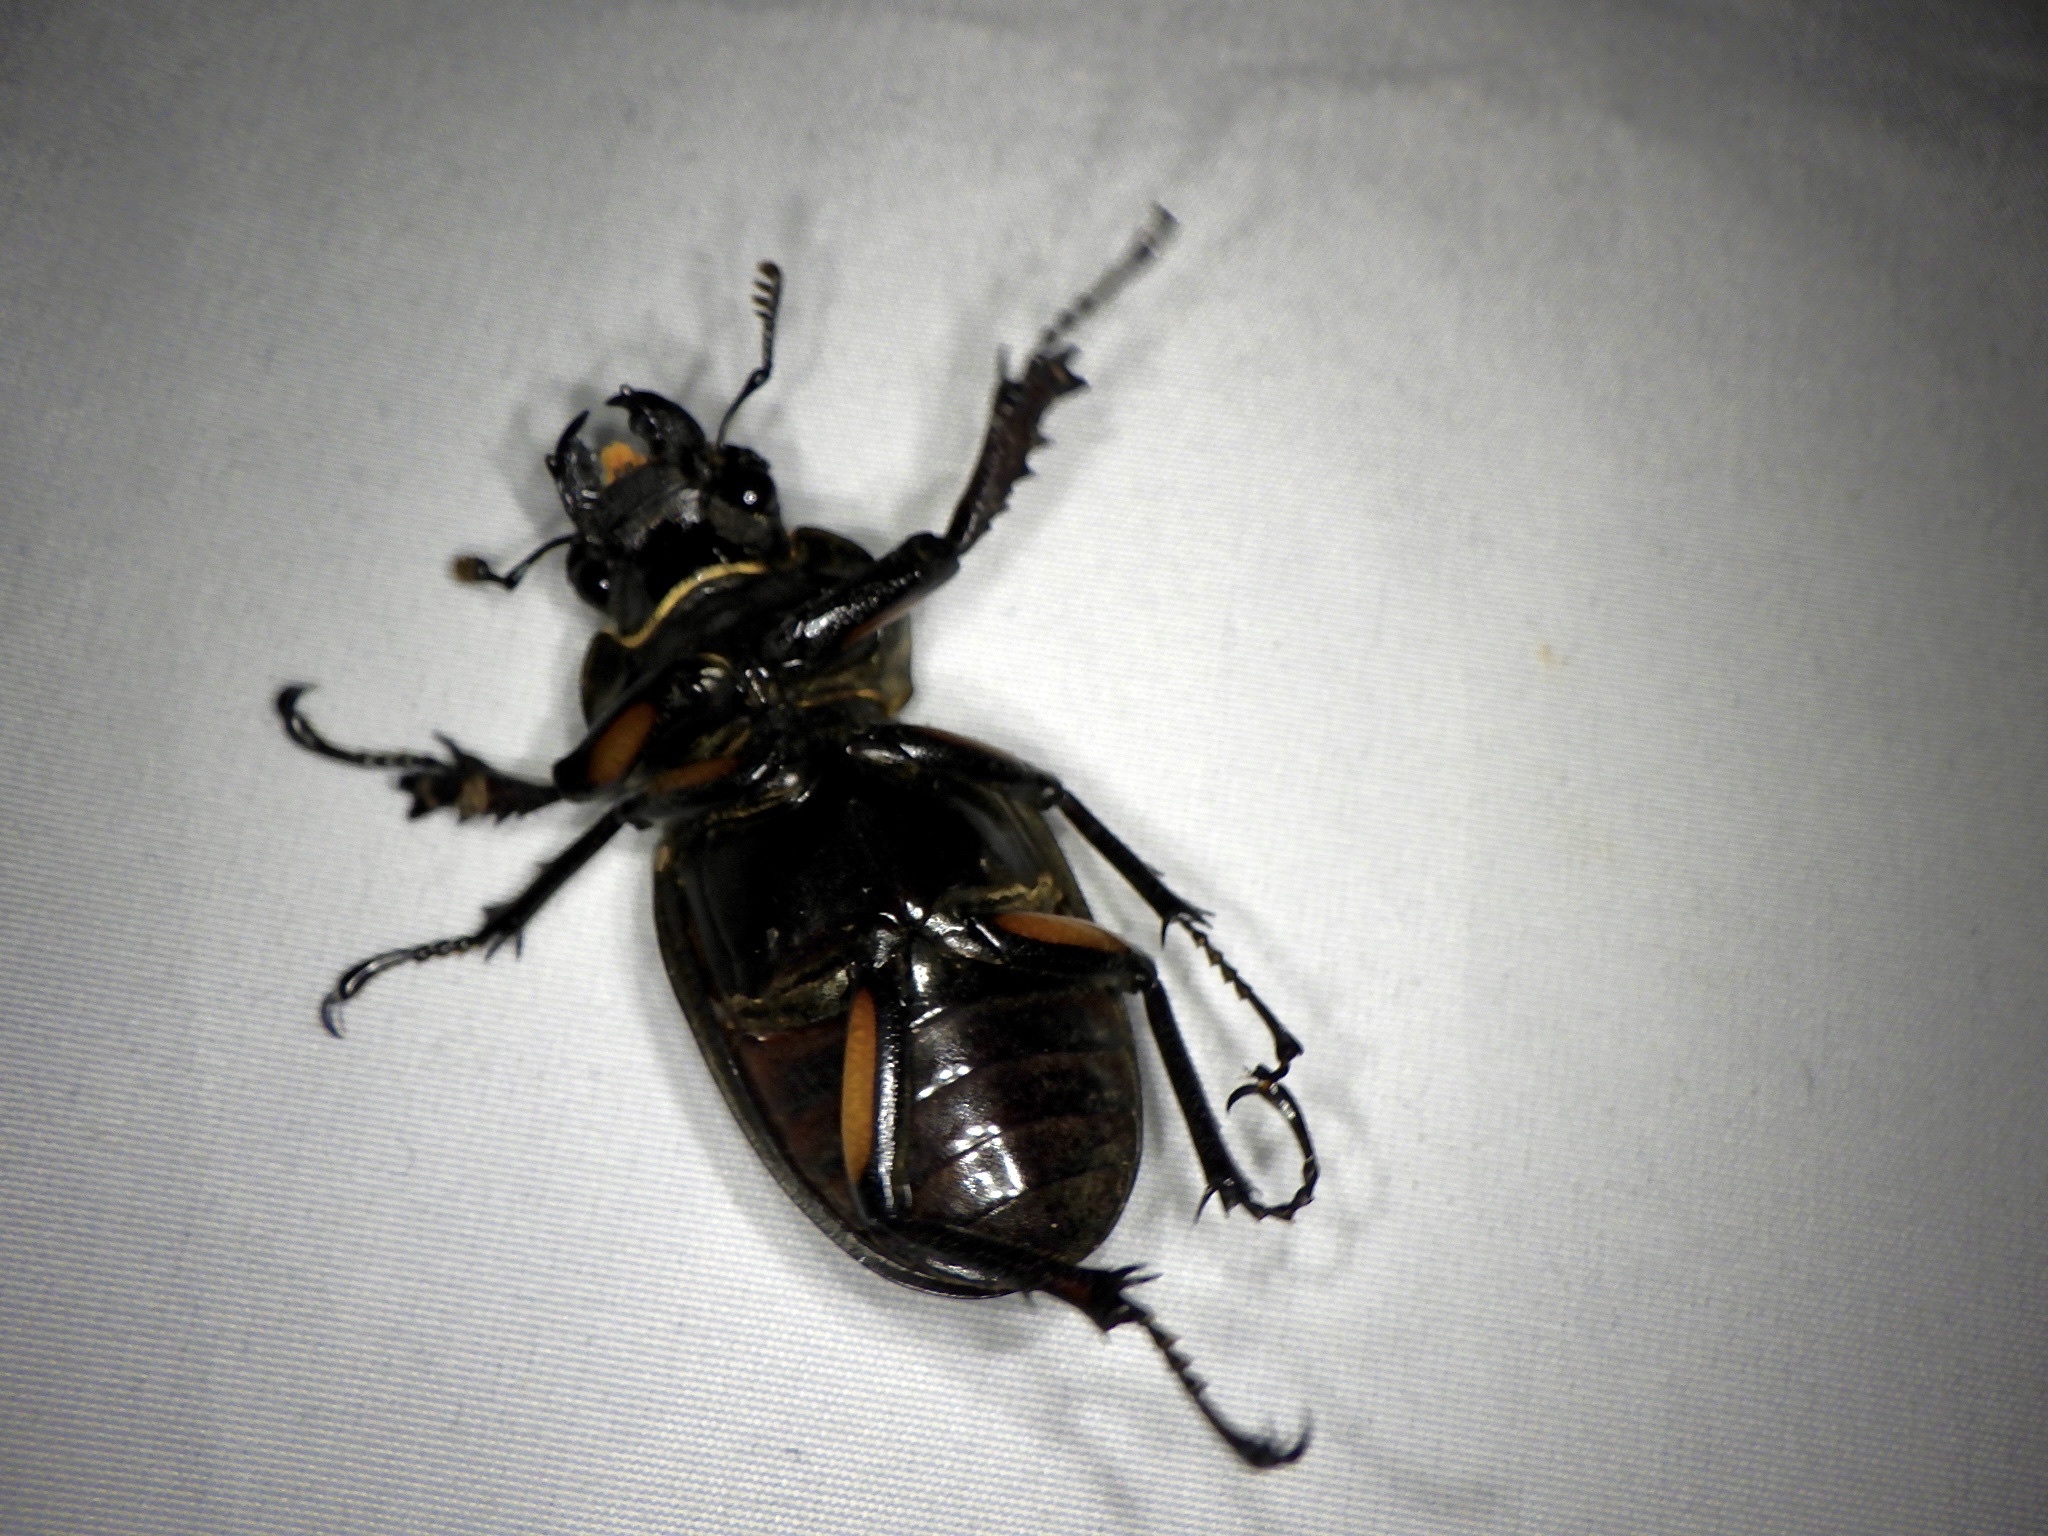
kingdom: Animalia
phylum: Arthropoda
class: Insecta
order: Coleoptera
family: Lucanidae
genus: Lucanus
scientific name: Lucanus maculifemoratus
